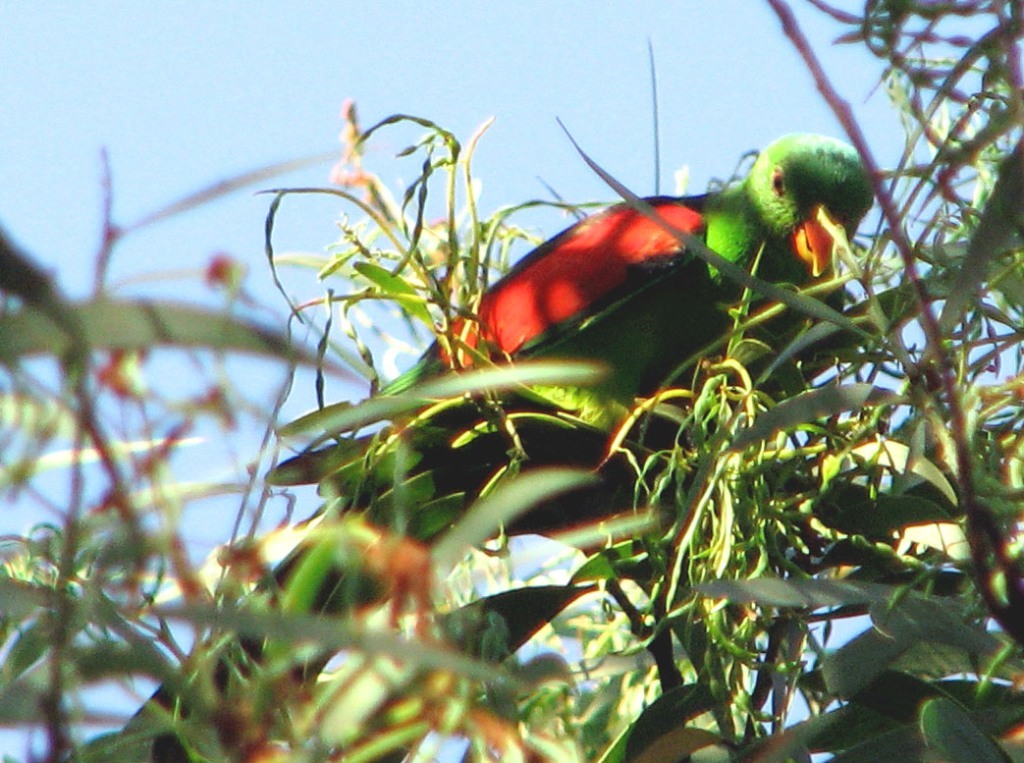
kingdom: Animalia
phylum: Chordata
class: Aves
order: Psittaciformes
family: Psittacidae
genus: Aprosmictus
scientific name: Aprosmictus erythropterus
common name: Red-winged parrot
